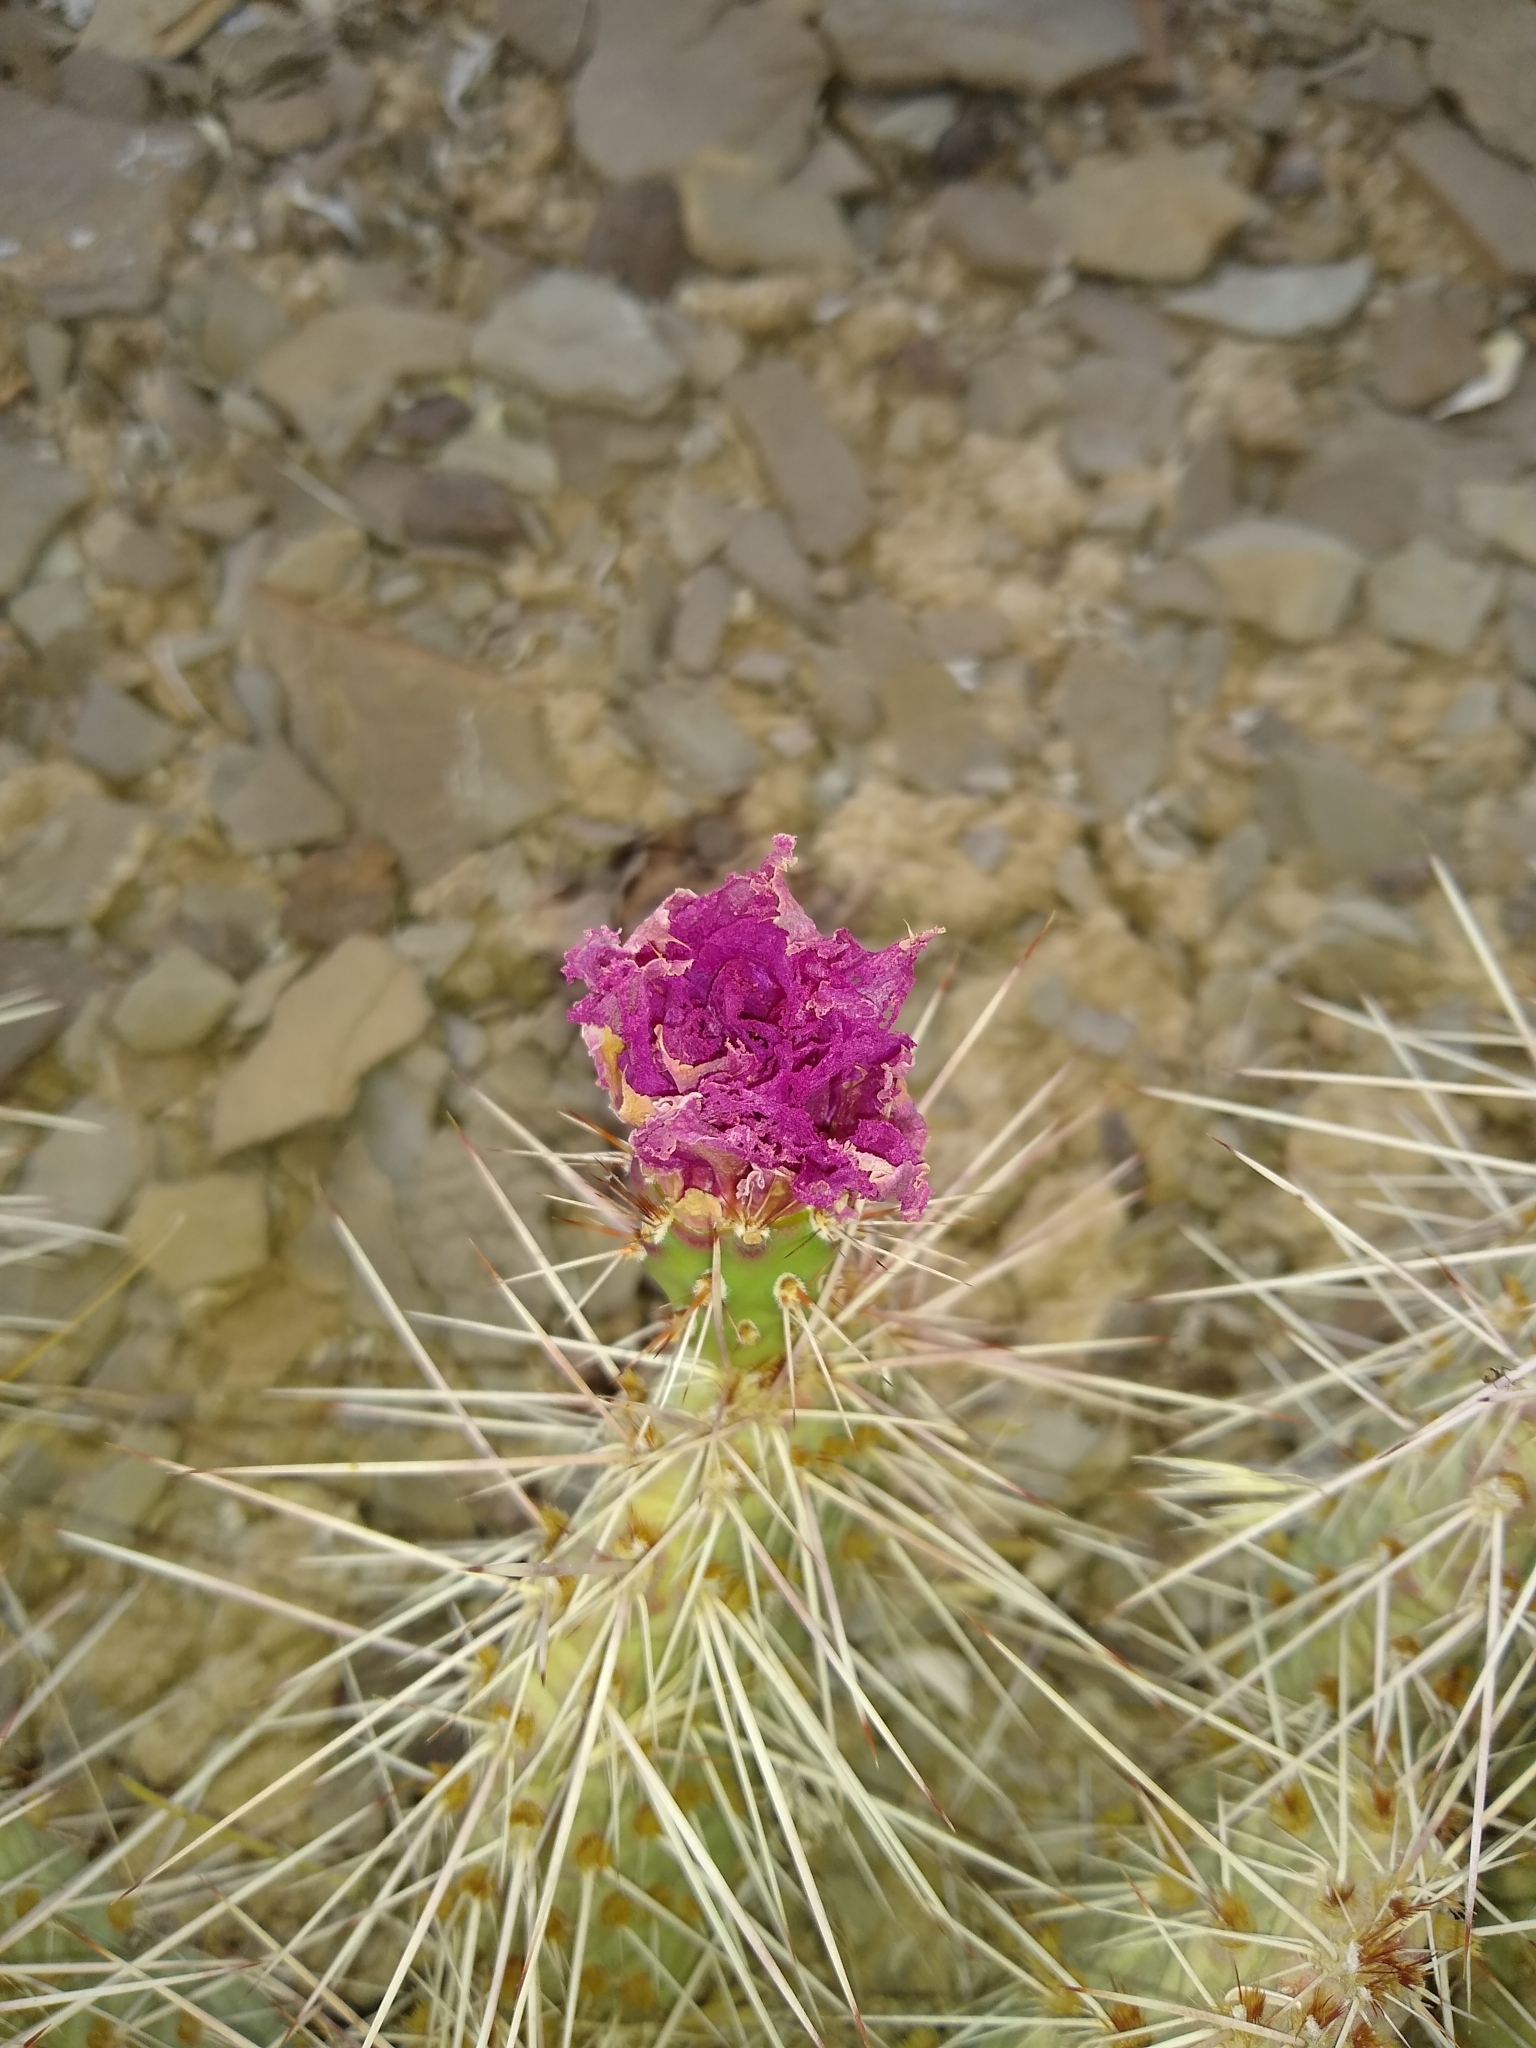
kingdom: Plantae
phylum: Tracheophyta
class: Magnoliopsida
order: Caryophyllales
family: Cactaceae
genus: Opuntia
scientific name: Opuntia polyacantha
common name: Plains prickly-pear
